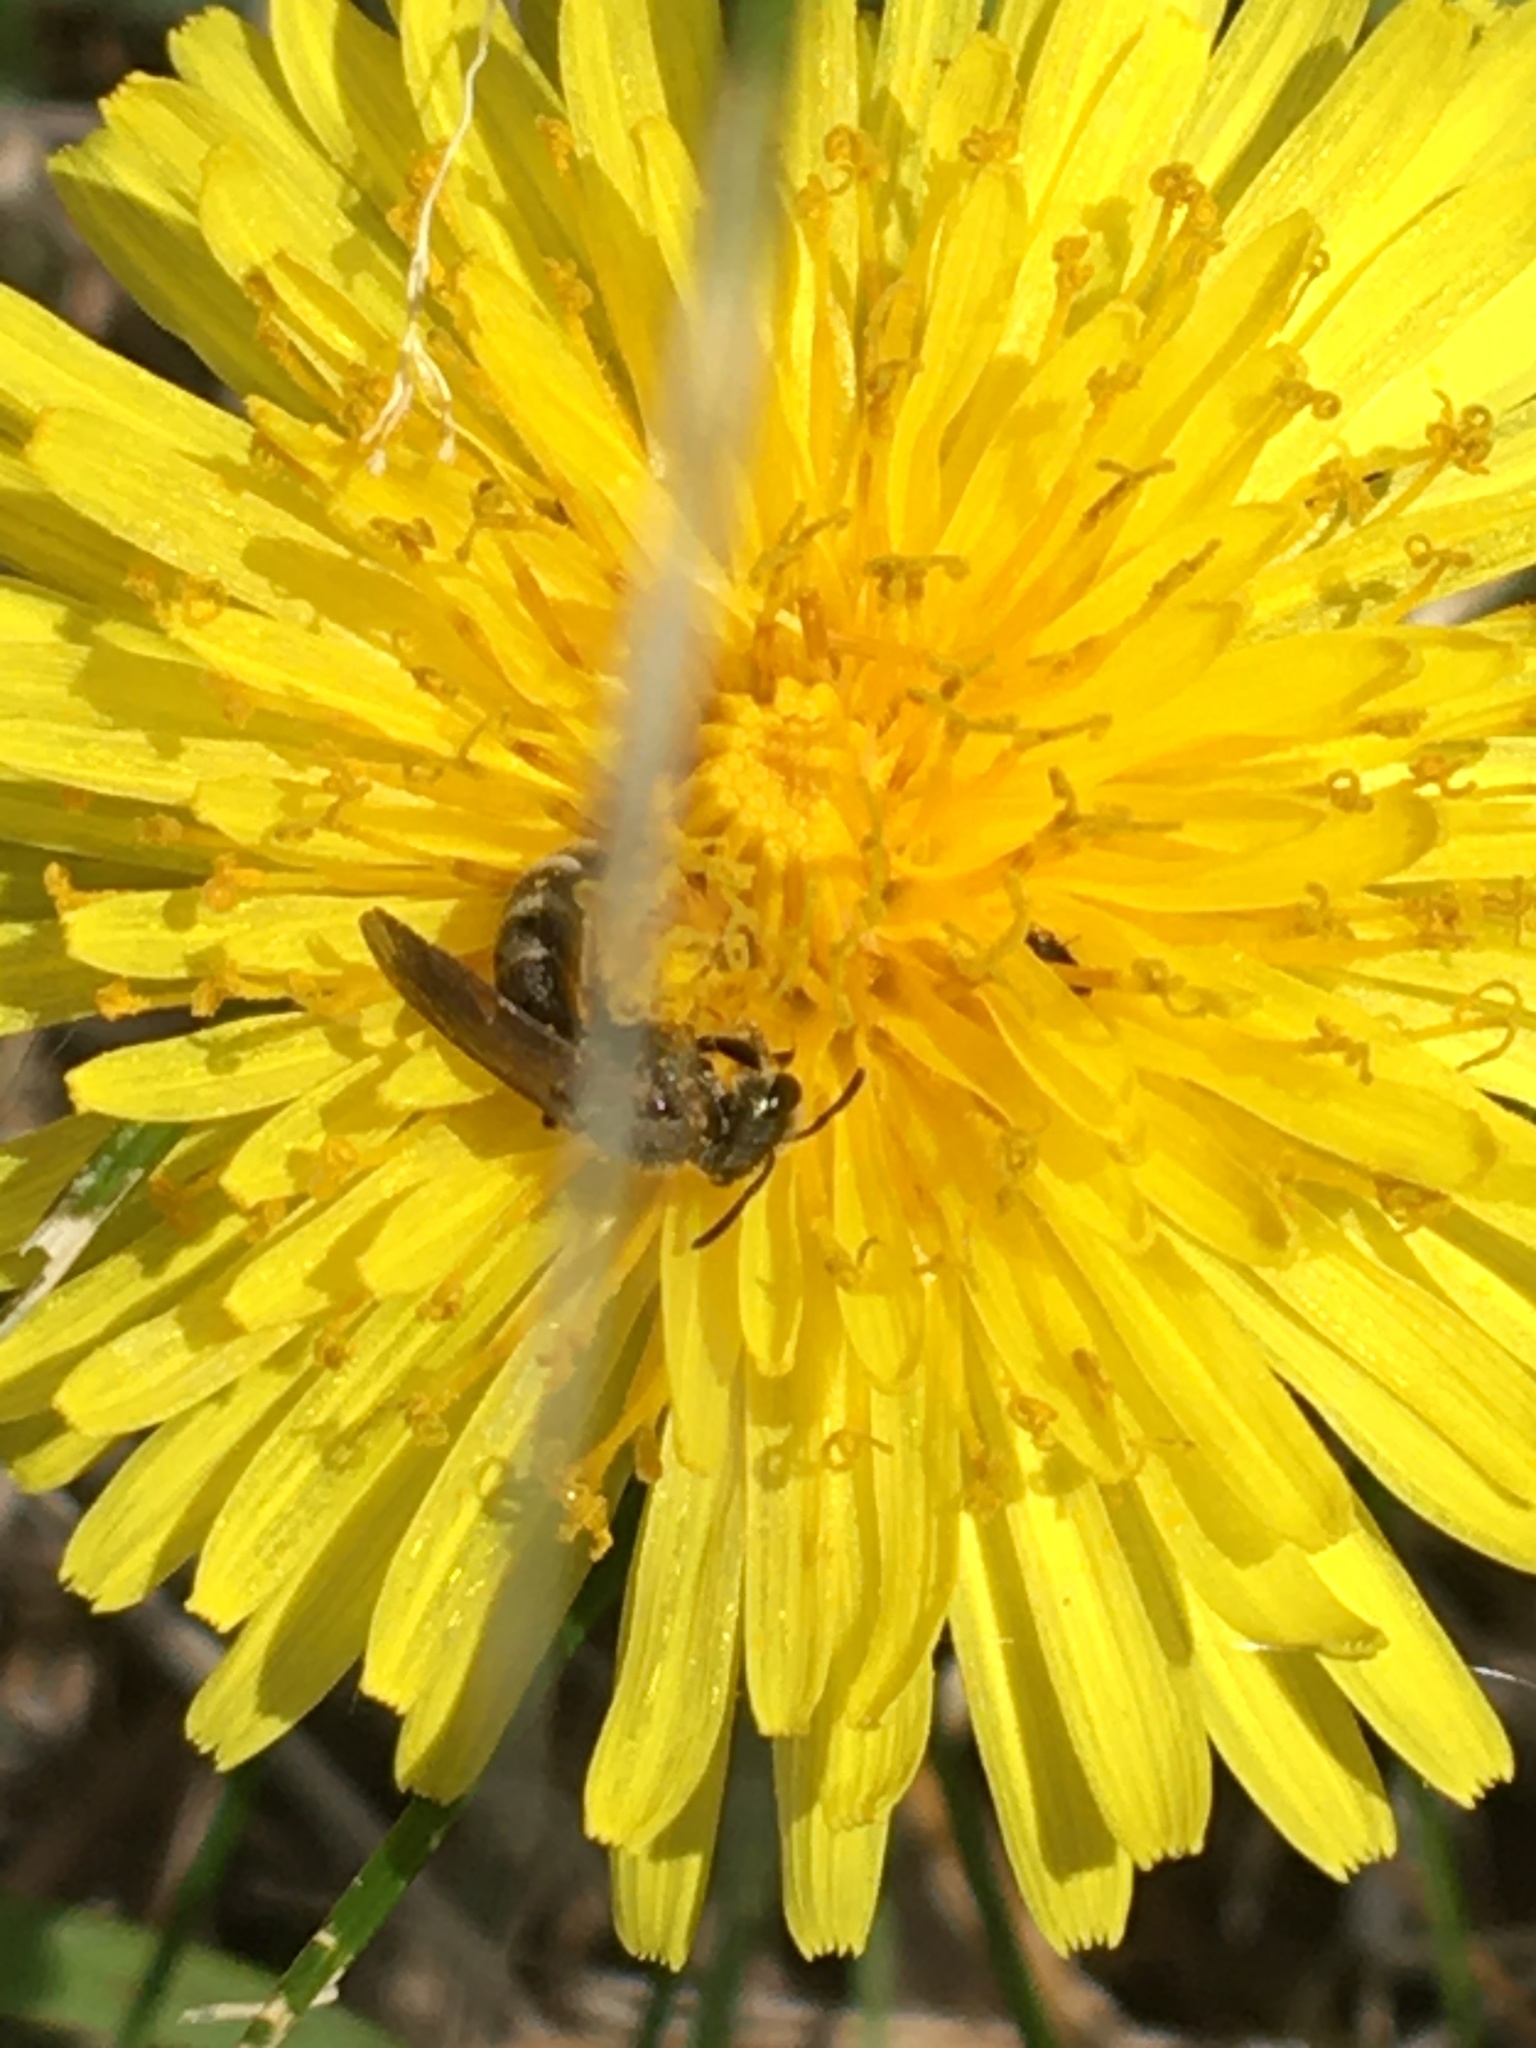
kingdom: Animalia
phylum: Arthropoda
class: Insecta
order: Hymenoptera
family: Halictidae
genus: Halictus
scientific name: Halictus confusus
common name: Southern bronze furrow bee
